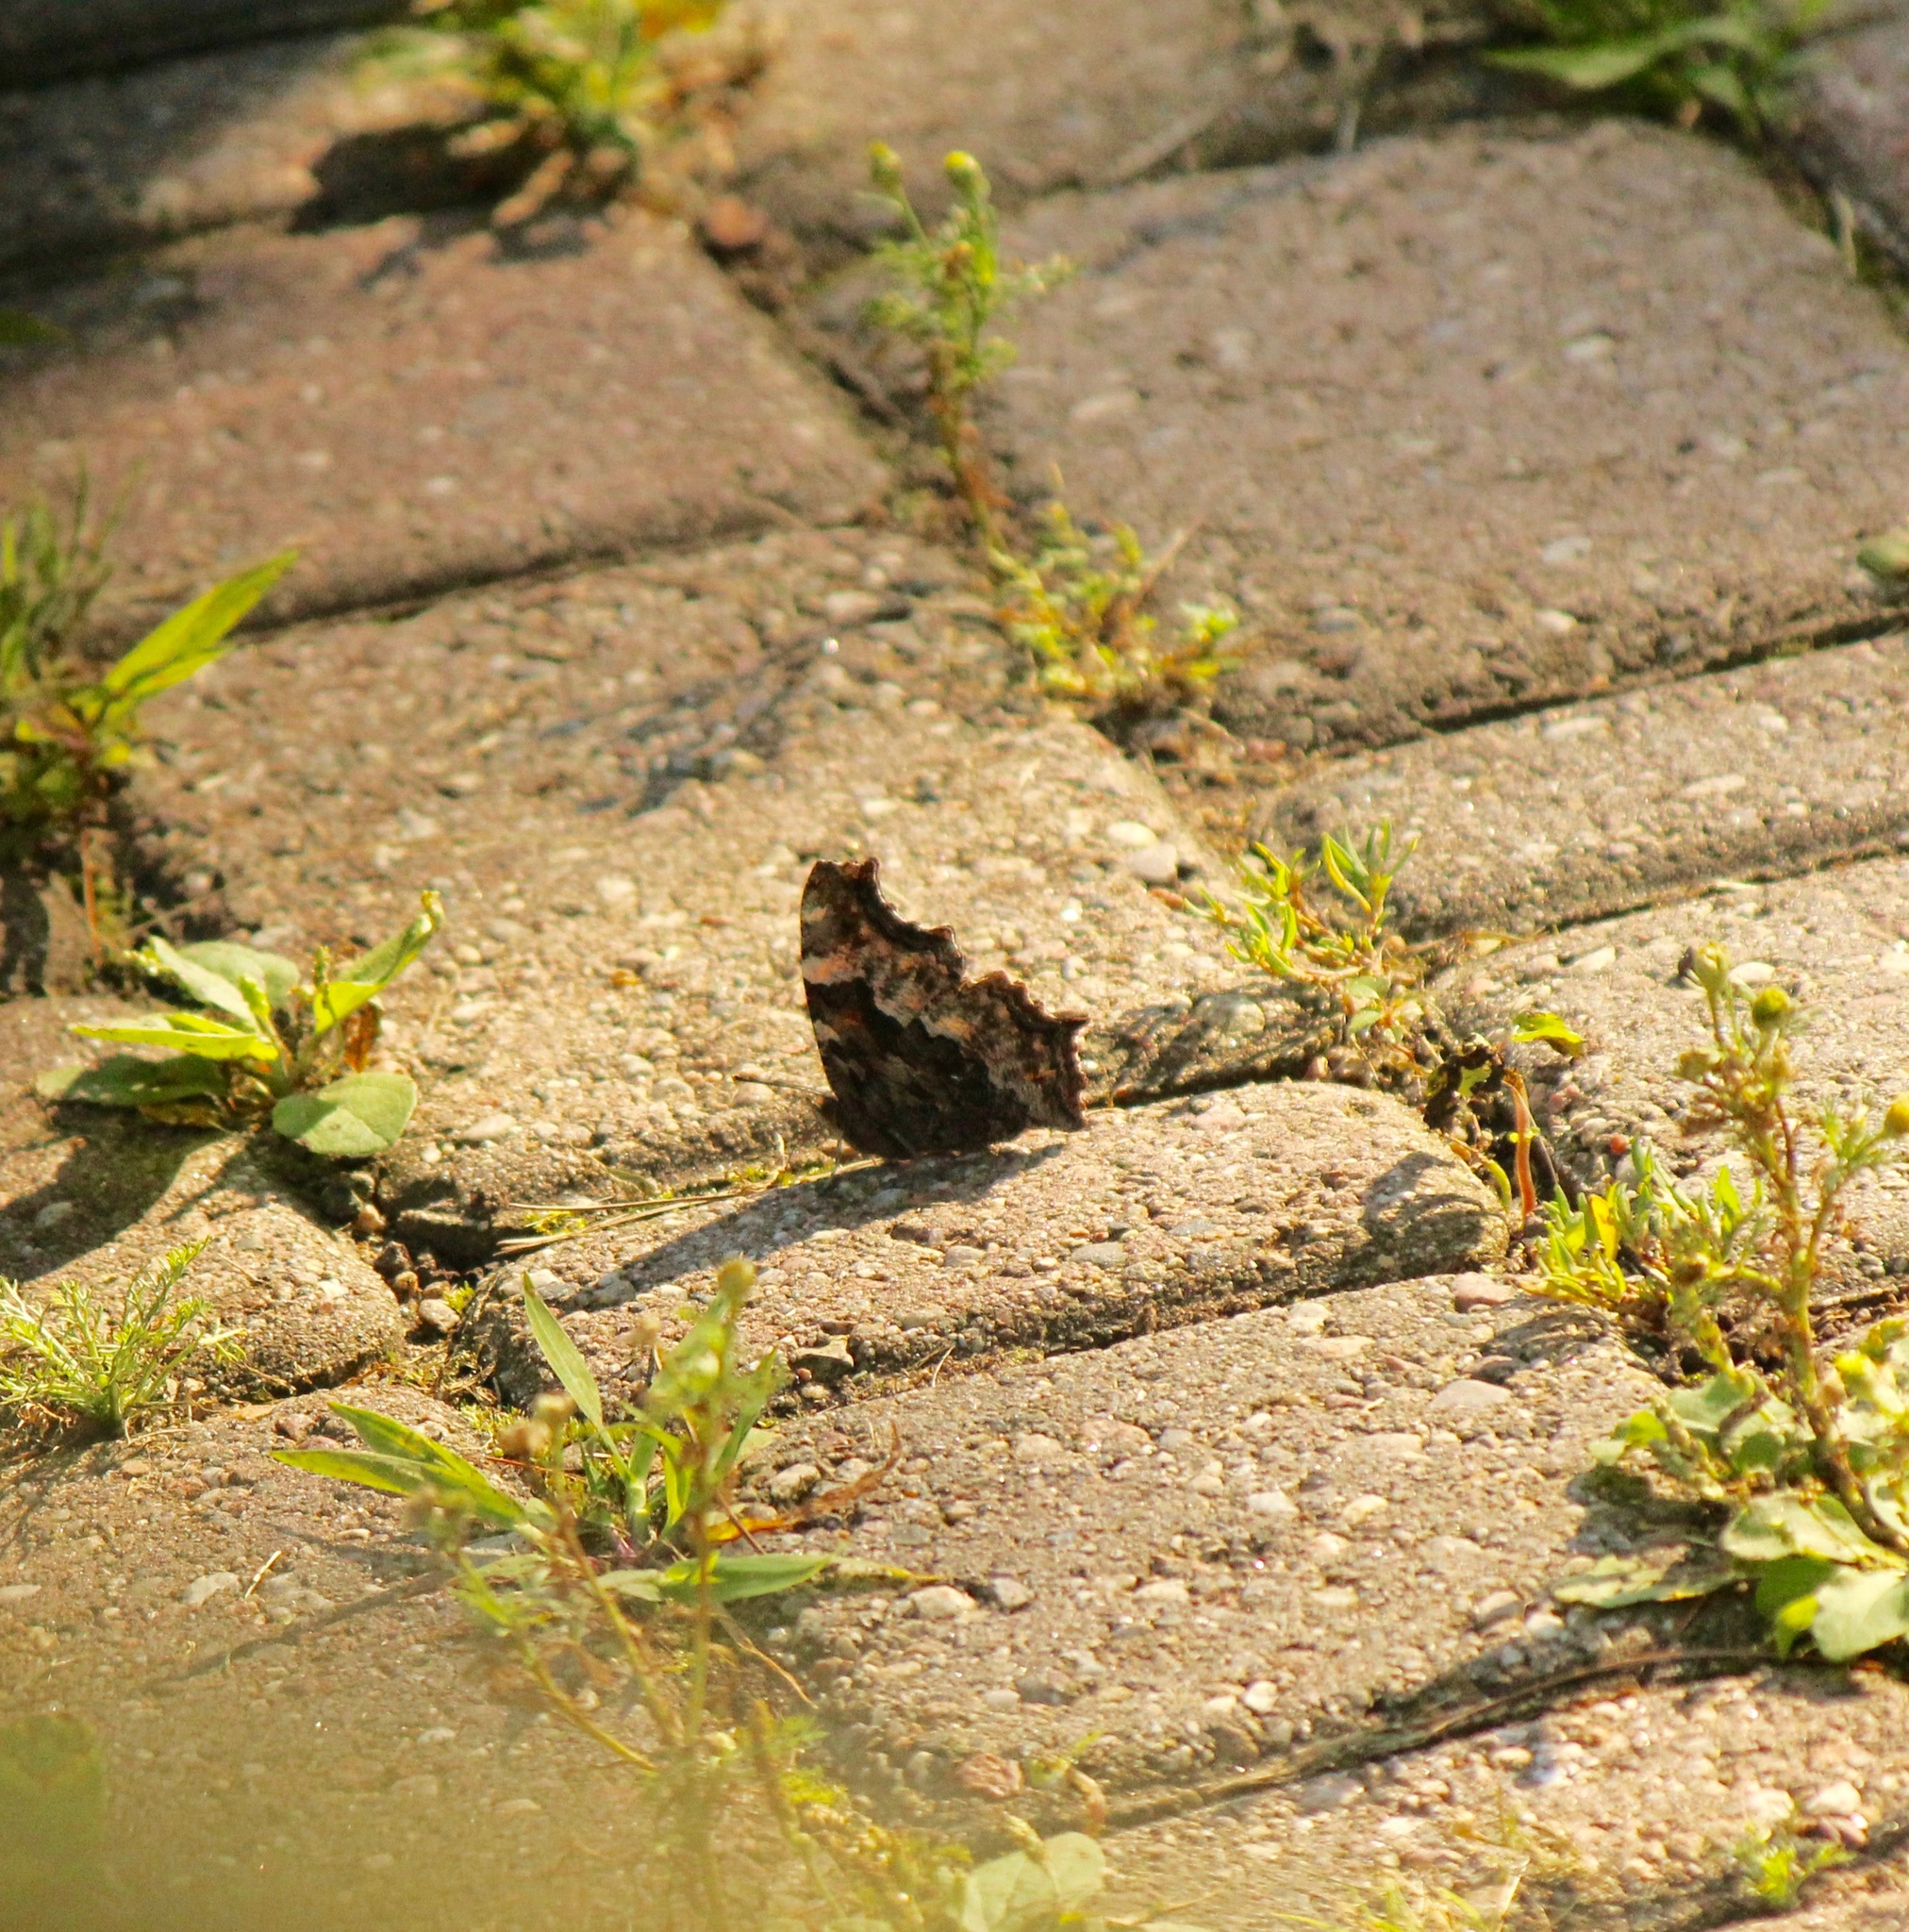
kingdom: Animalia
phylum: Arthropoda
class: Insecta
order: Lepidoptera
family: Nymphalidae
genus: Polygonia
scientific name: Polygonia vaualbum
